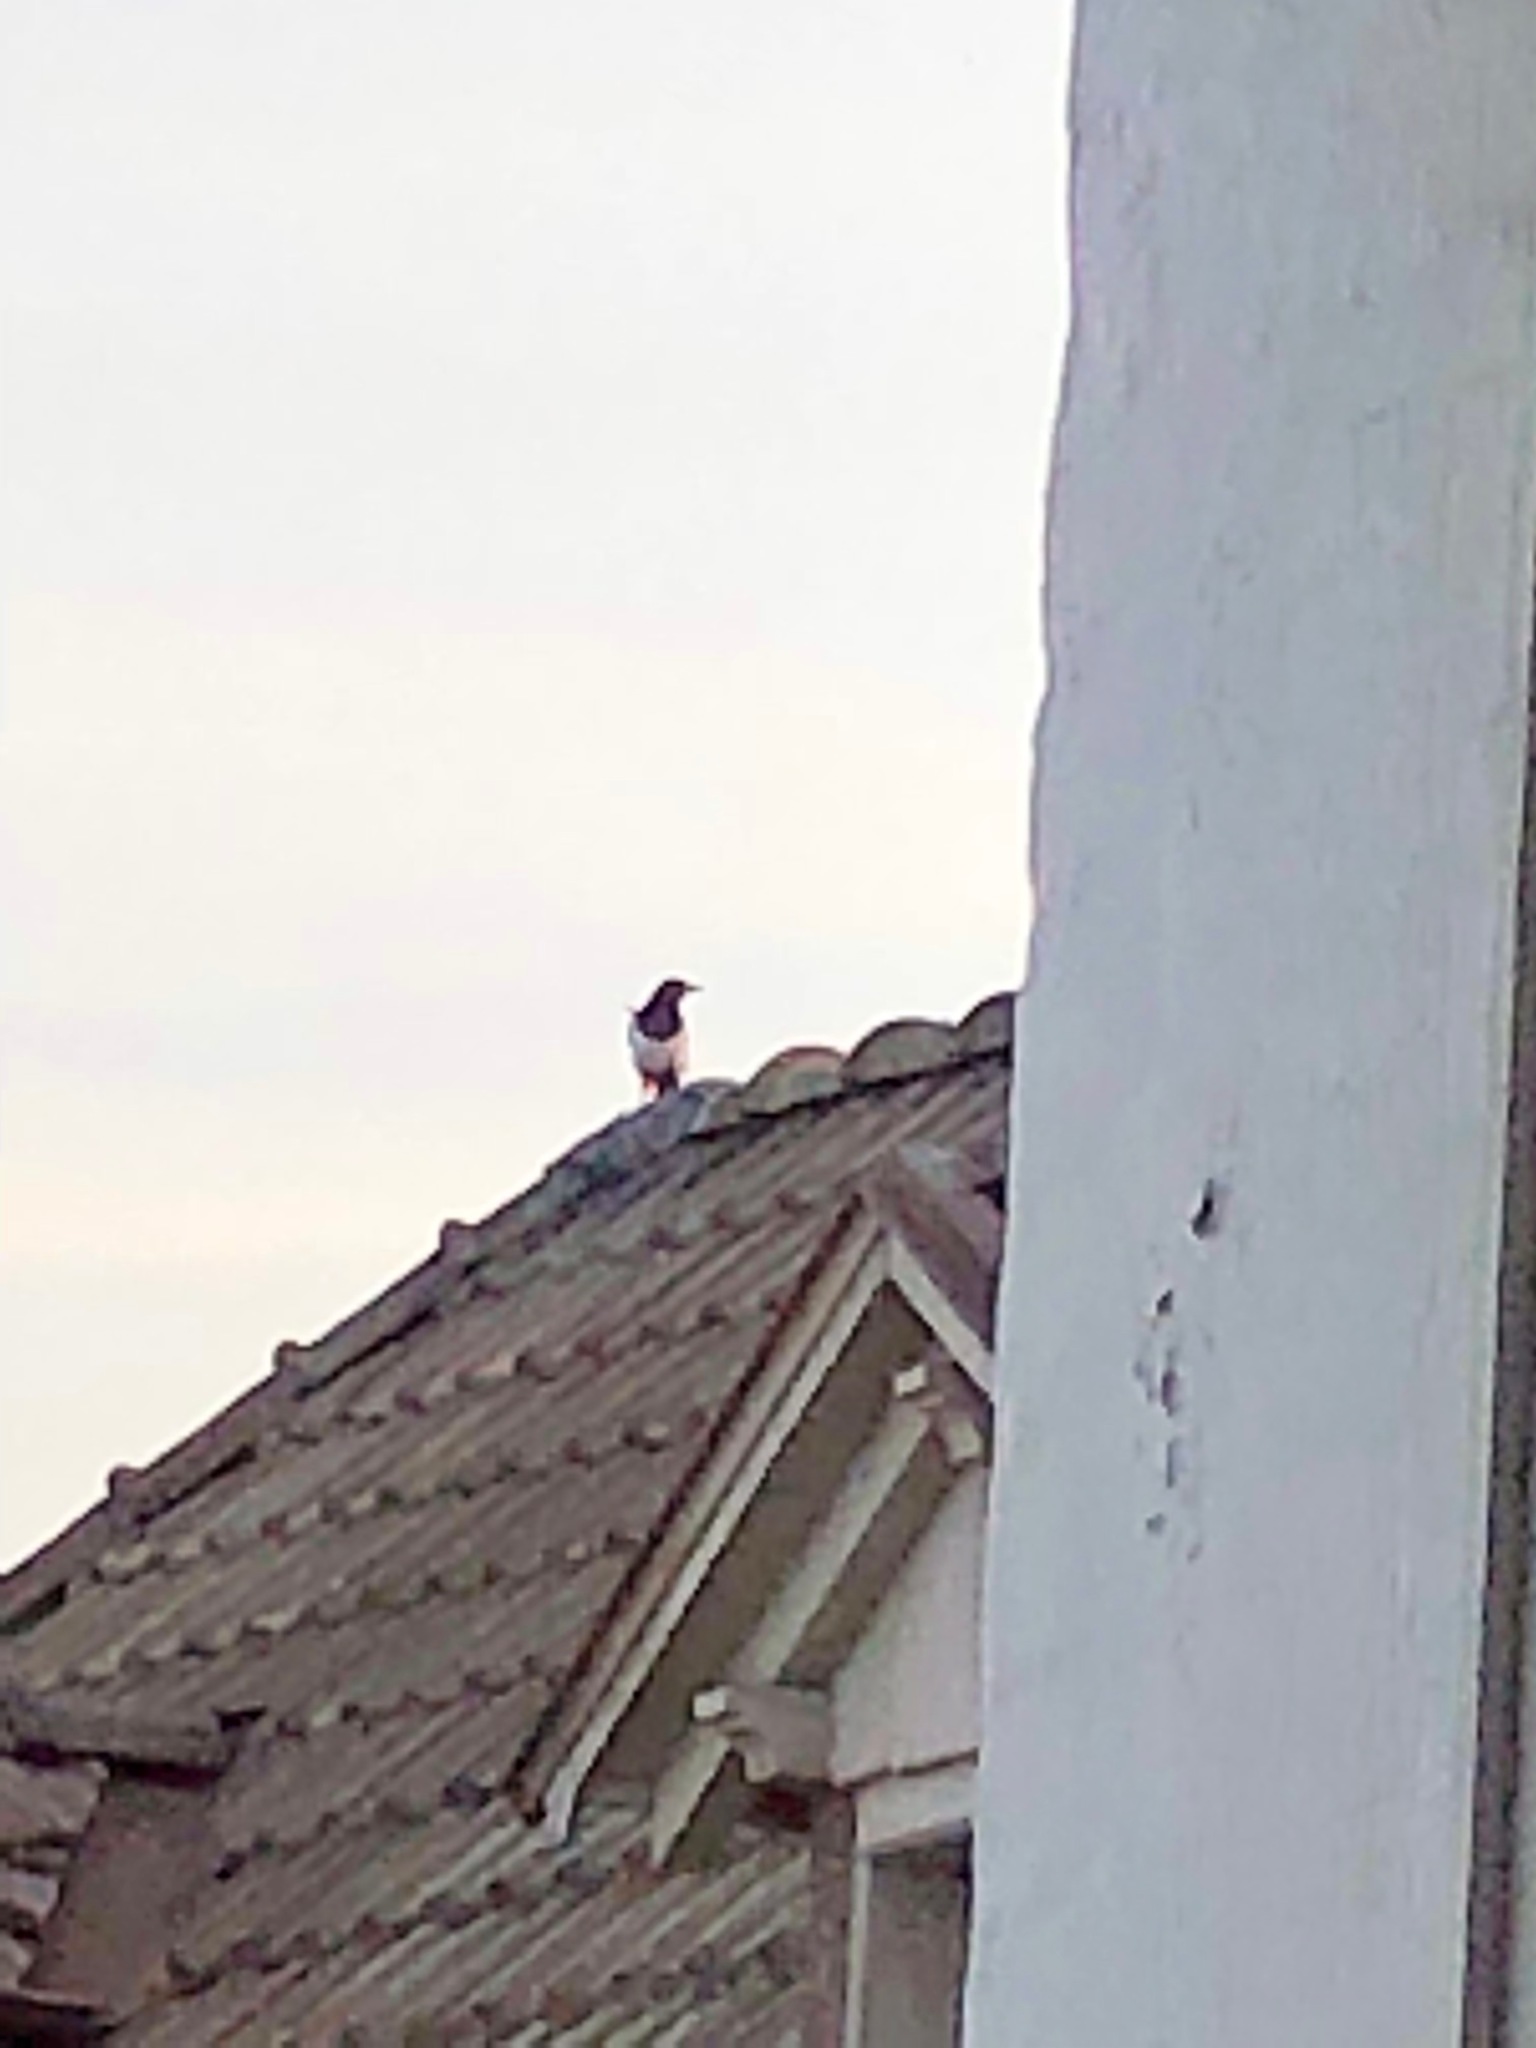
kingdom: Animalia
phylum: Chordata
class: Aves
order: Passeriformes
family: Corvidae
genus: Pica
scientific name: Pica pica
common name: Eurasian magpie
